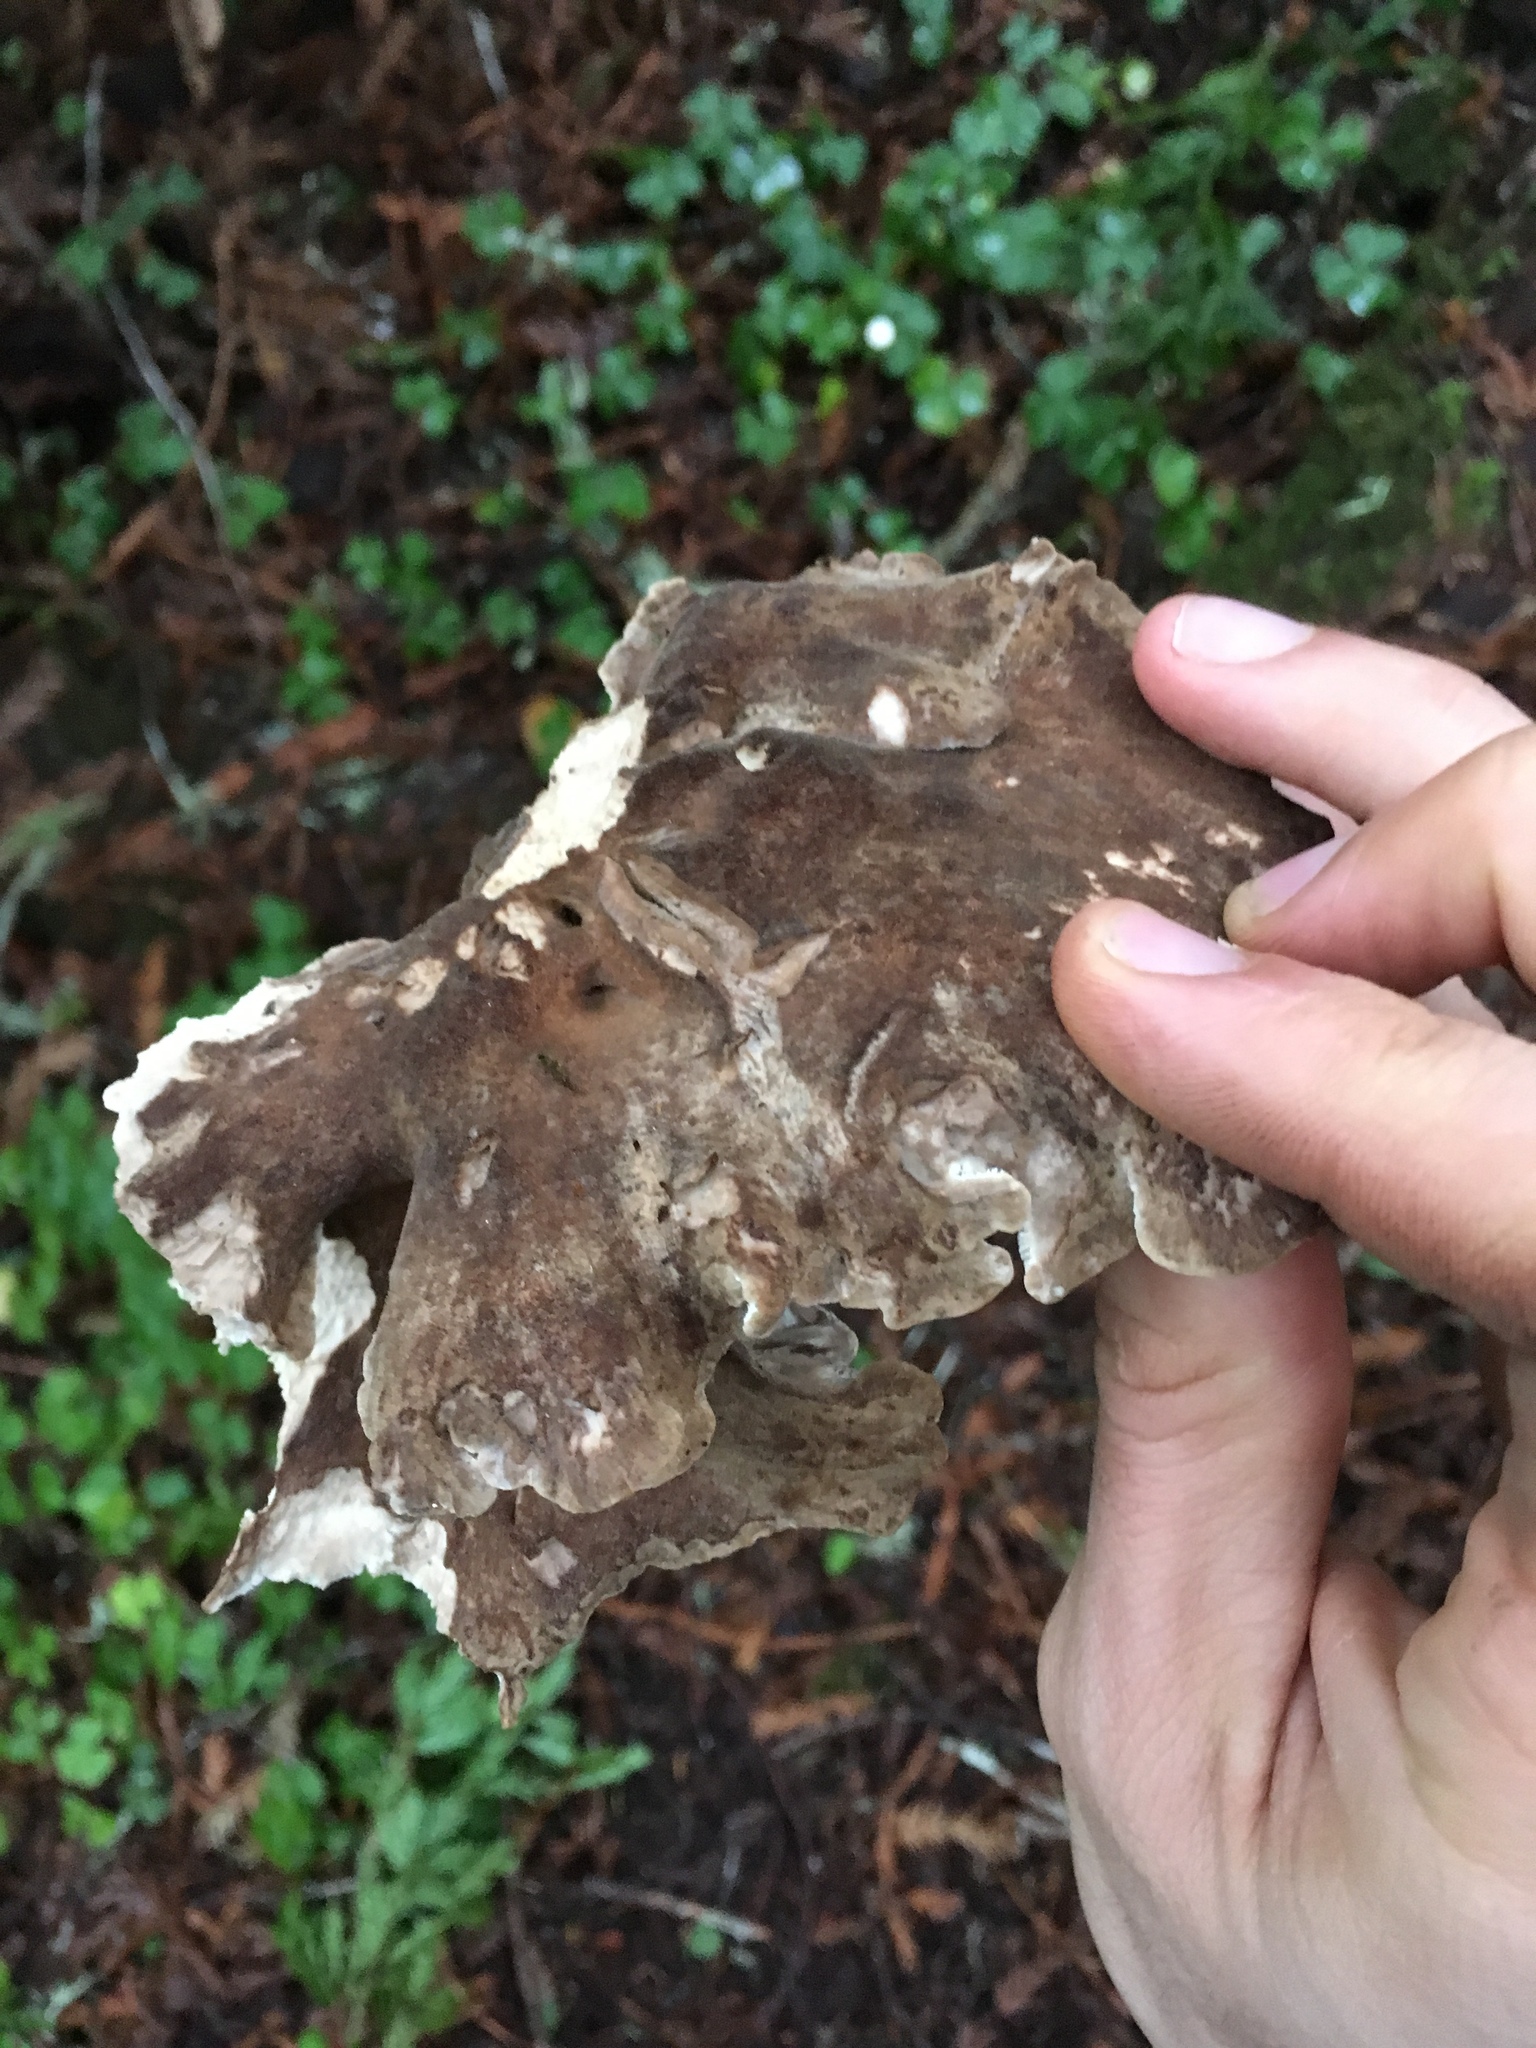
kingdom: Fungi
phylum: Basidiomycota
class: Agaricomycetes
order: Polyporales
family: Dacryobolaceae
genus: Jahnoporus
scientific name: Jahnoporus hirtus
